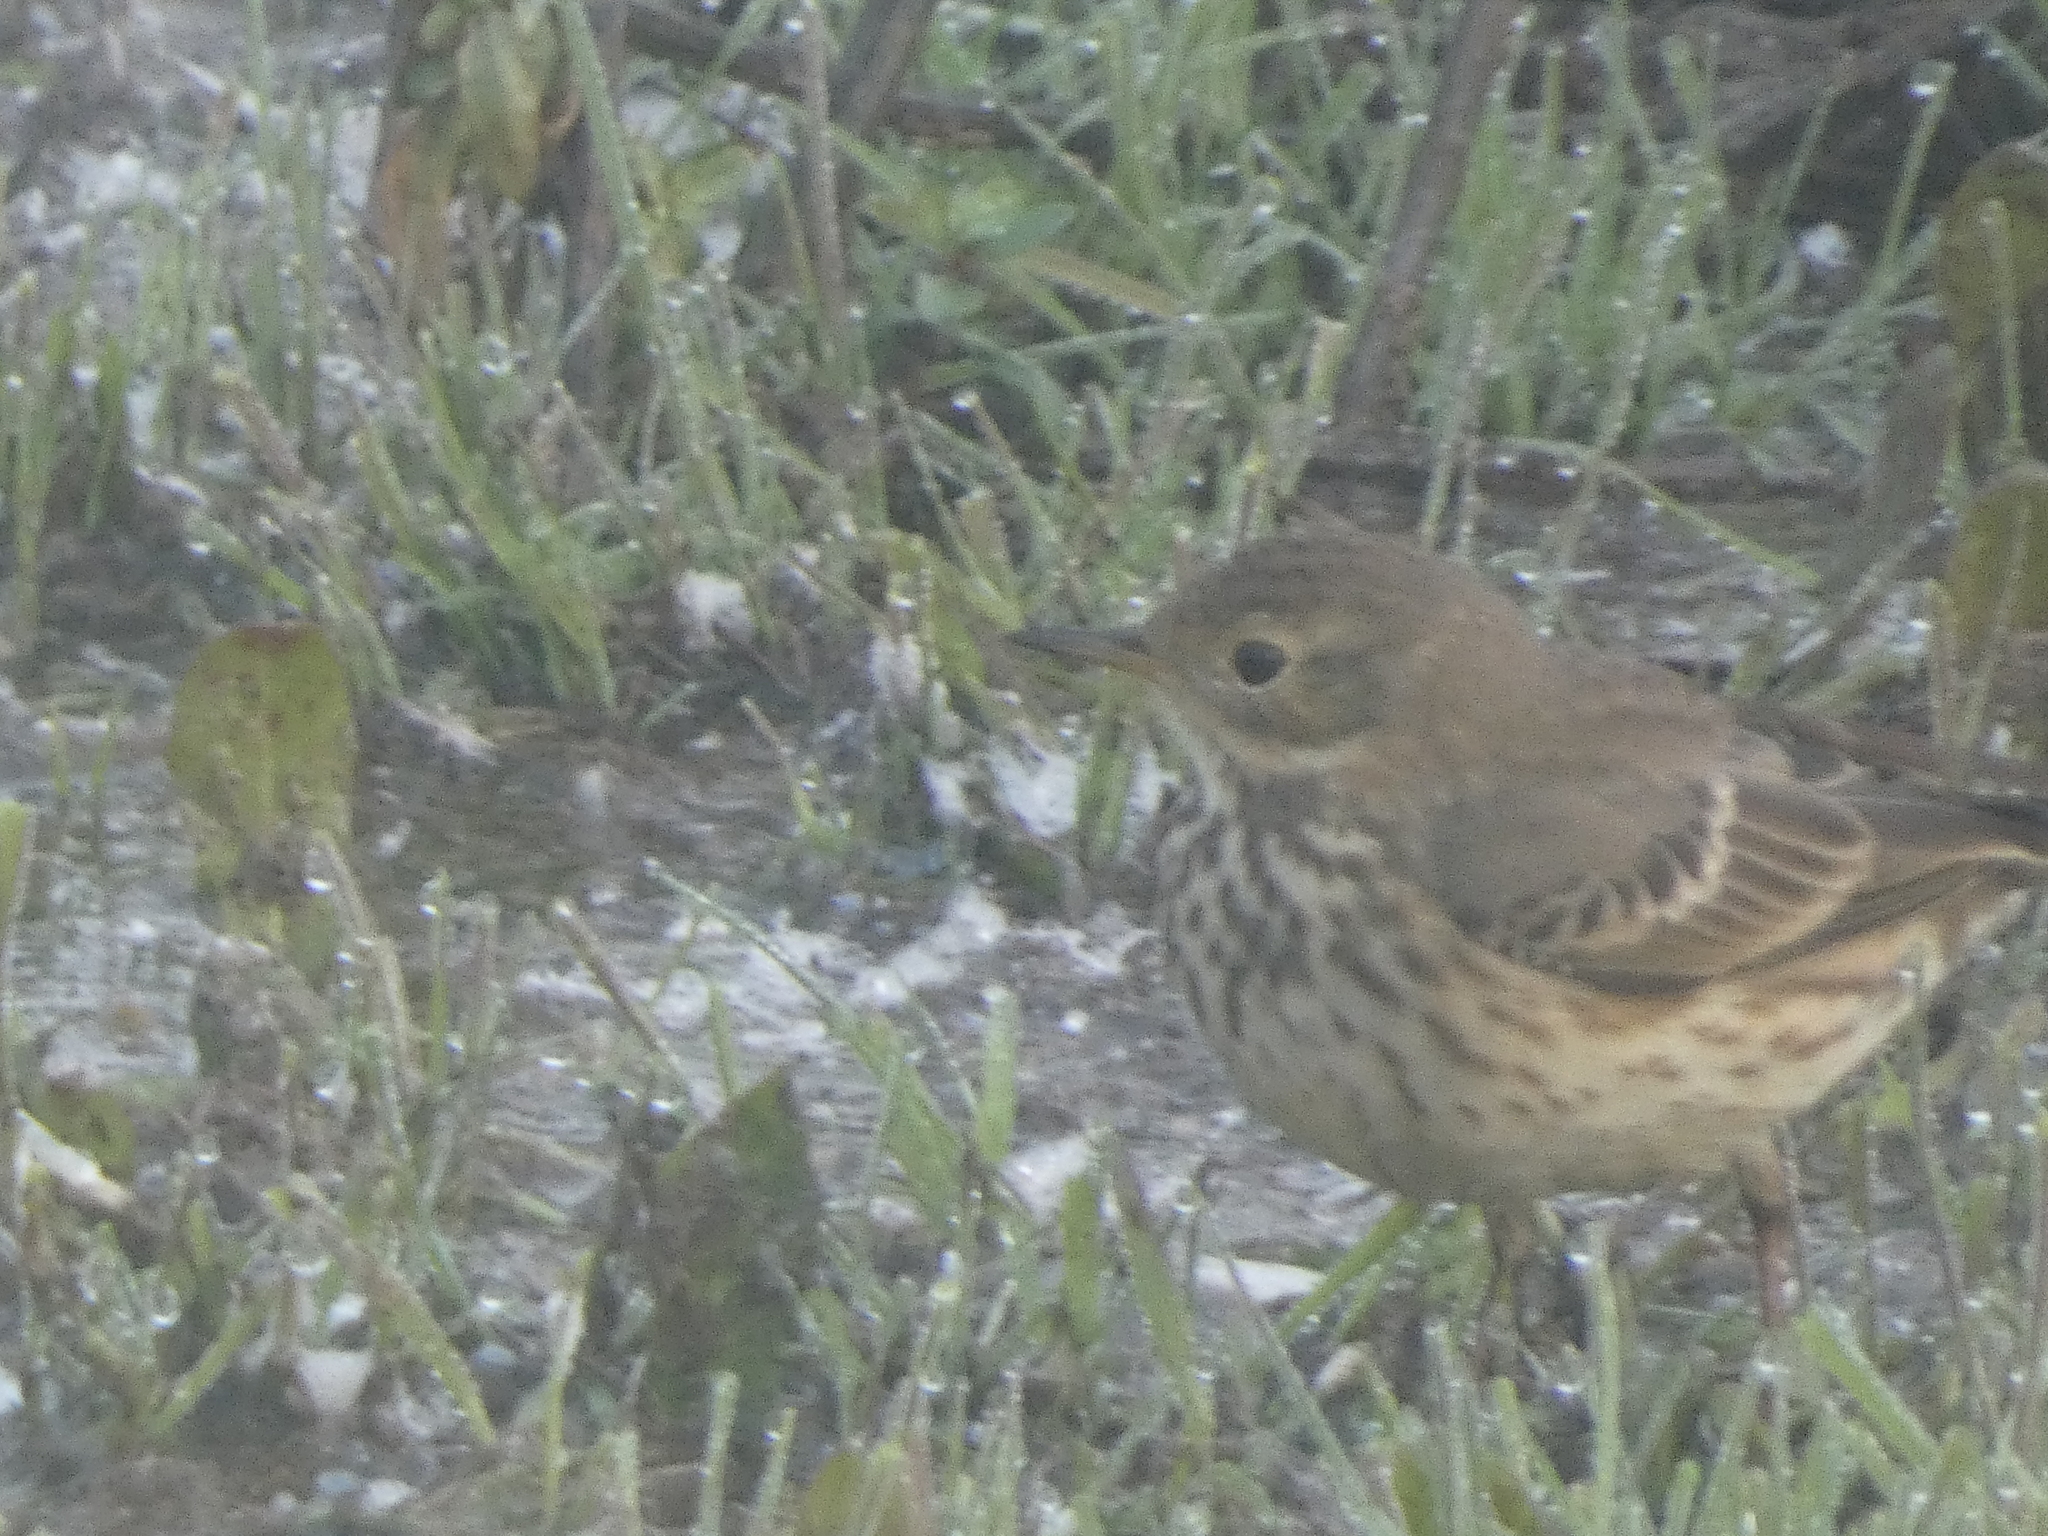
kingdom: Animalia
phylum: Chordata
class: Aves
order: Passeriformes
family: Motacillidae
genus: Anthus
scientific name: Anthus rubescens
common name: Buff-bellied pipit
